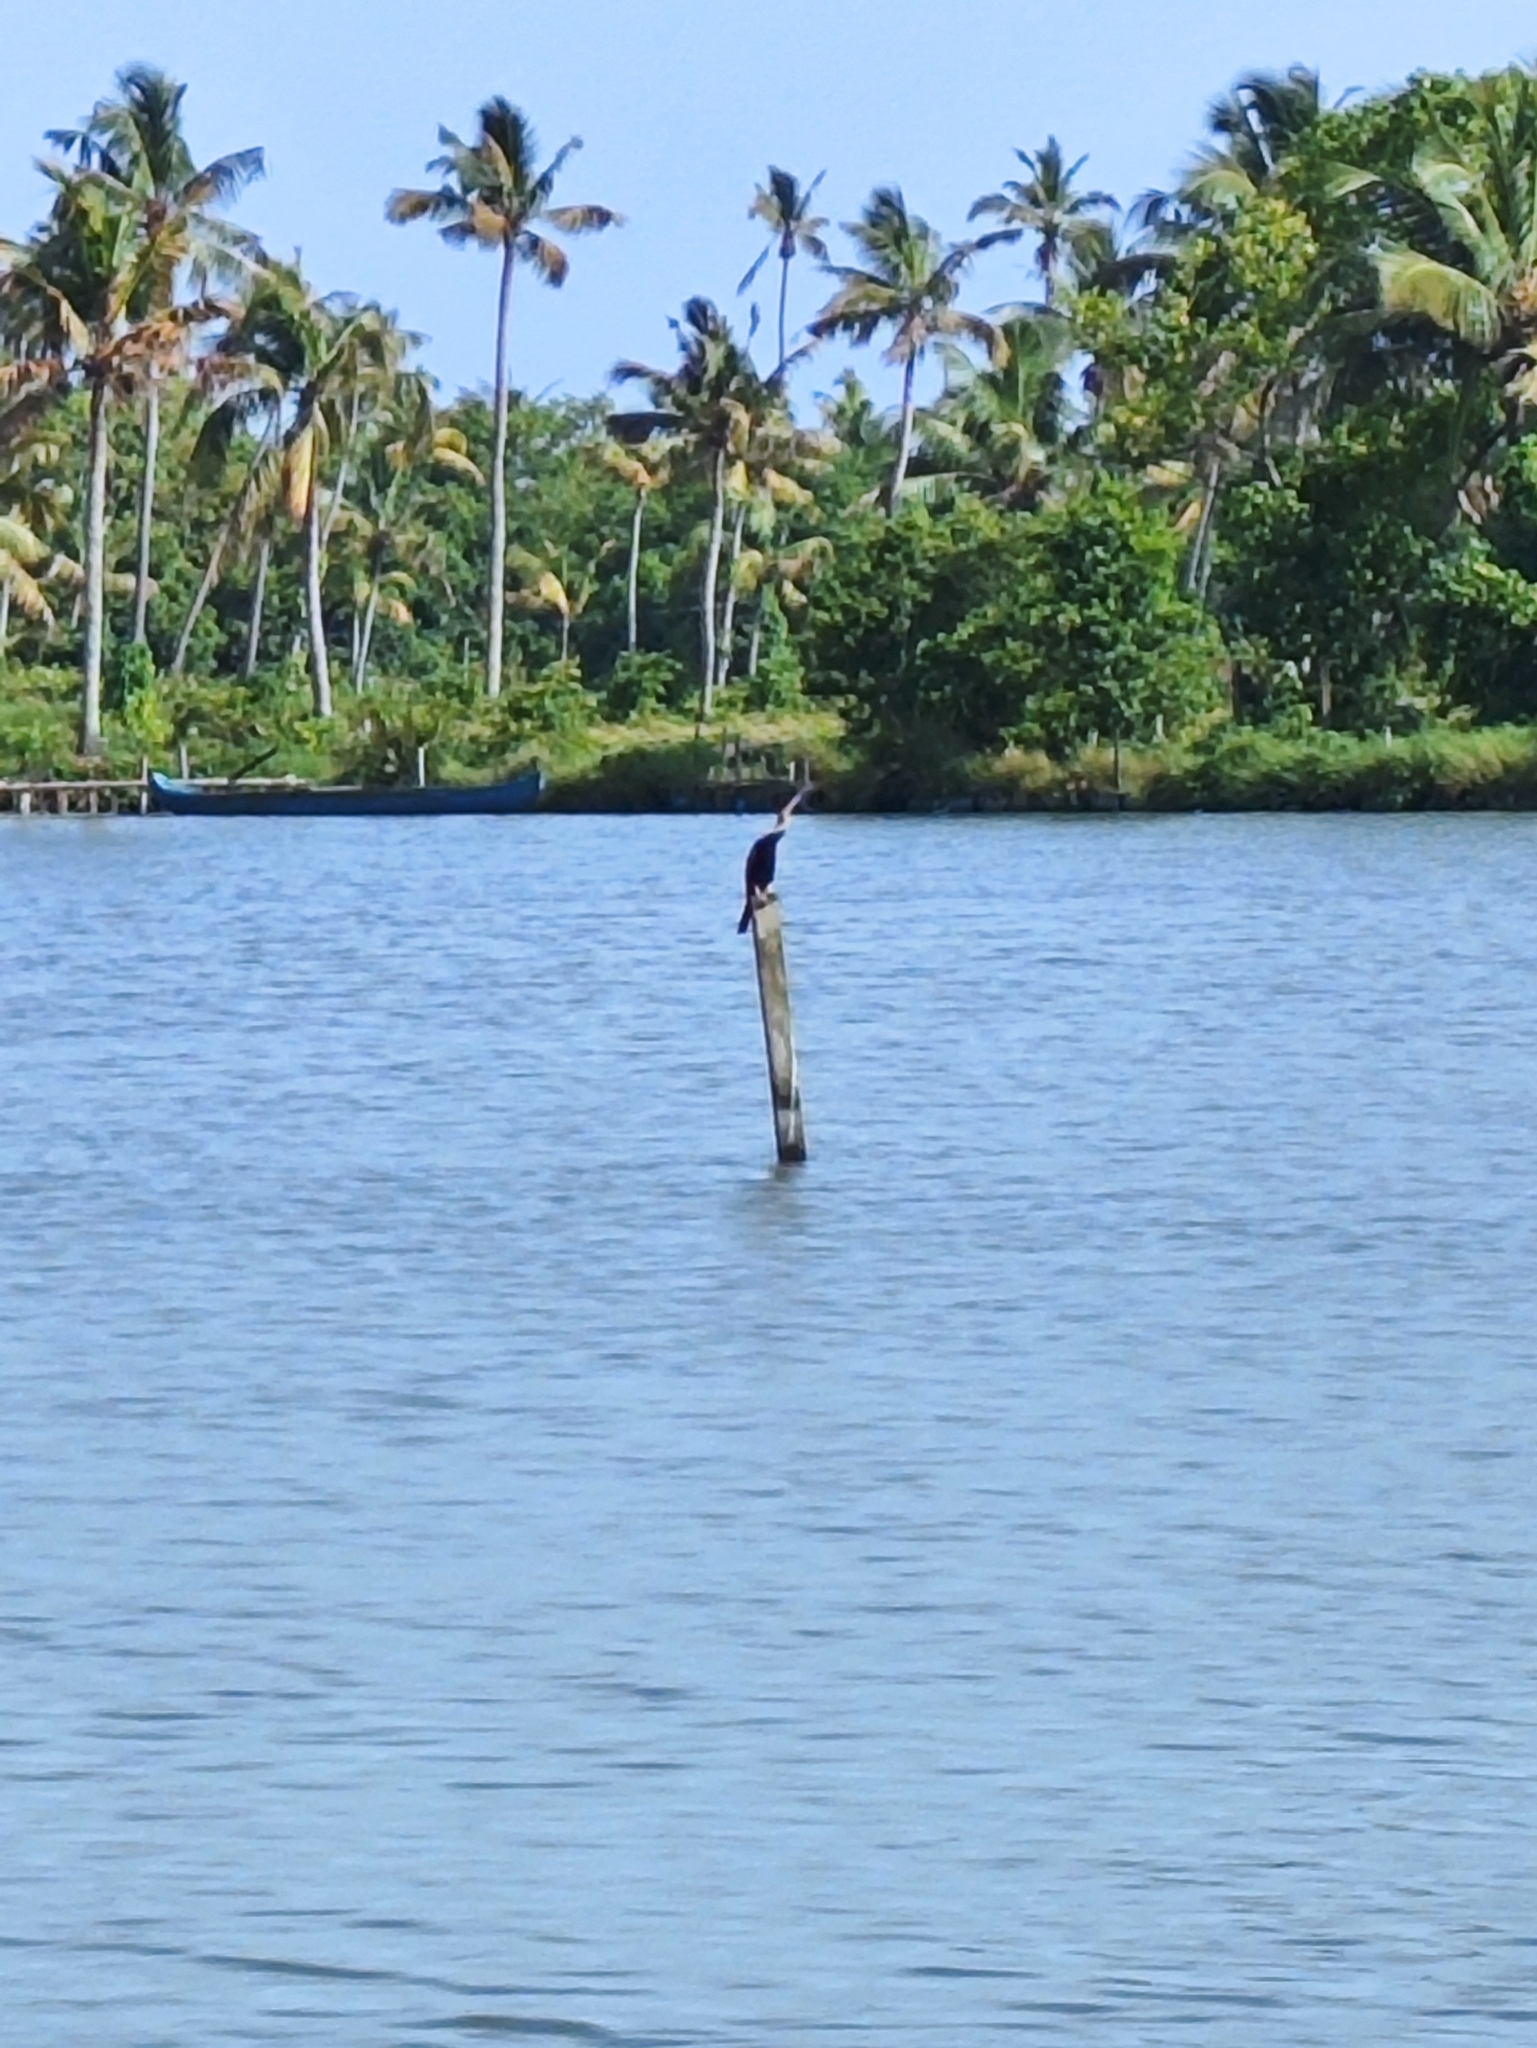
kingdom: Animalia
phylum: Chordata
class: Aves
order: Suliformes
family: Anhingidae
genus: Anhinga
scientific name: Anhinga melanogaster
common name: Oriental darter
